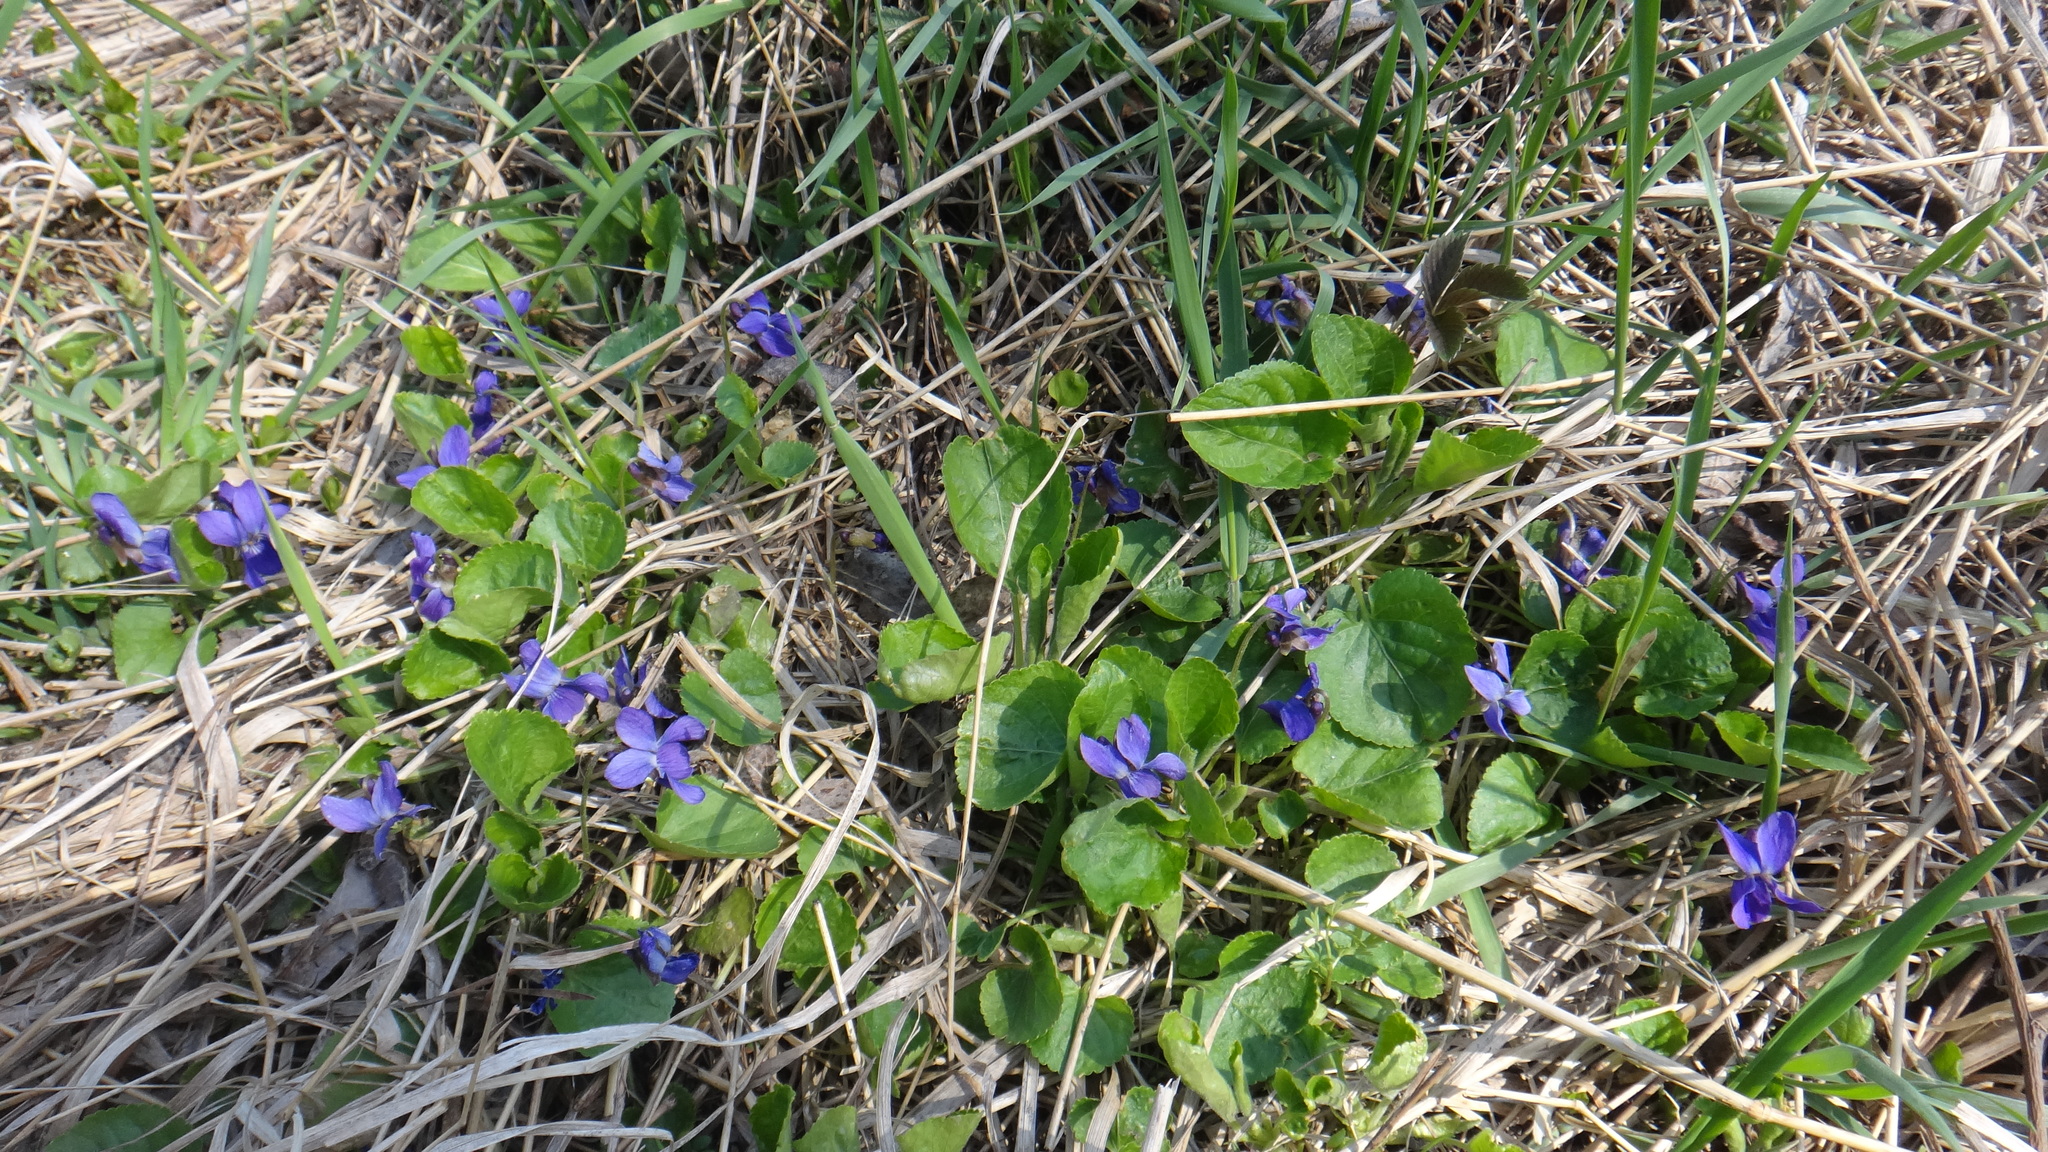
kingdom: Plantae
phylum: Tracheophyta
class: Magnoliopsida
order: Malpighiales
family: Violaceae
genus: Viola
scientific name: Viola odorata
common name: Sweet violet
